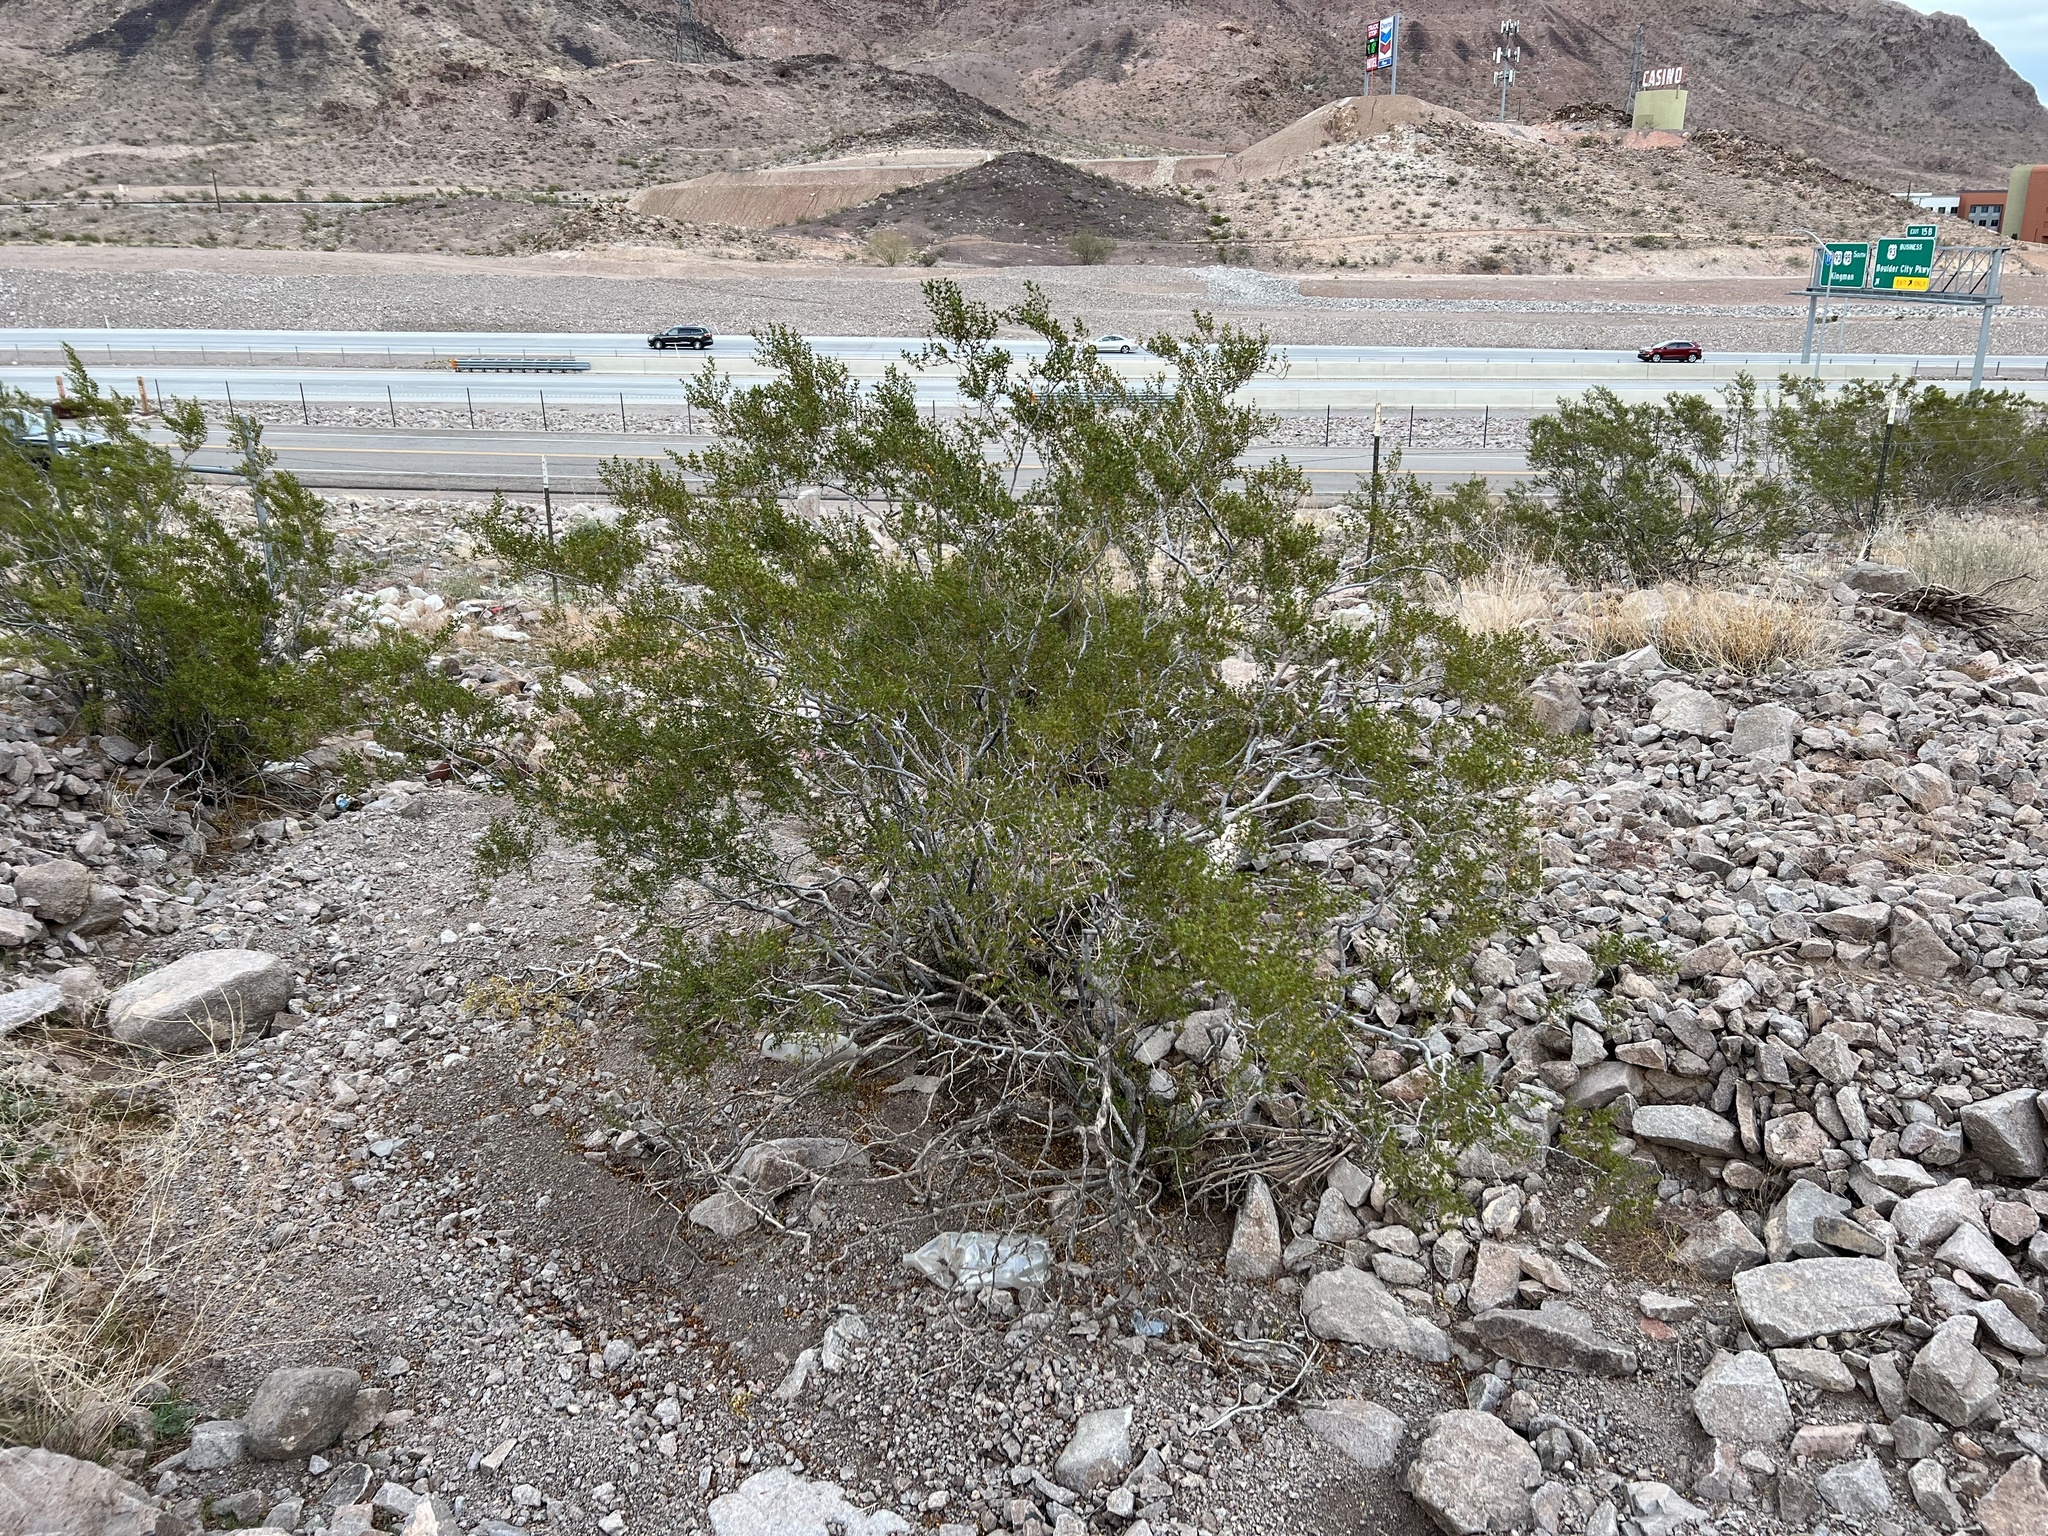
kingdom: Plantae
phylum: Tracheophyta
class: Magnoliopsida
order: Zygophyllales
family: Zygophyllaceae
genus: Larrea
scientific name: Larrea tridentata
